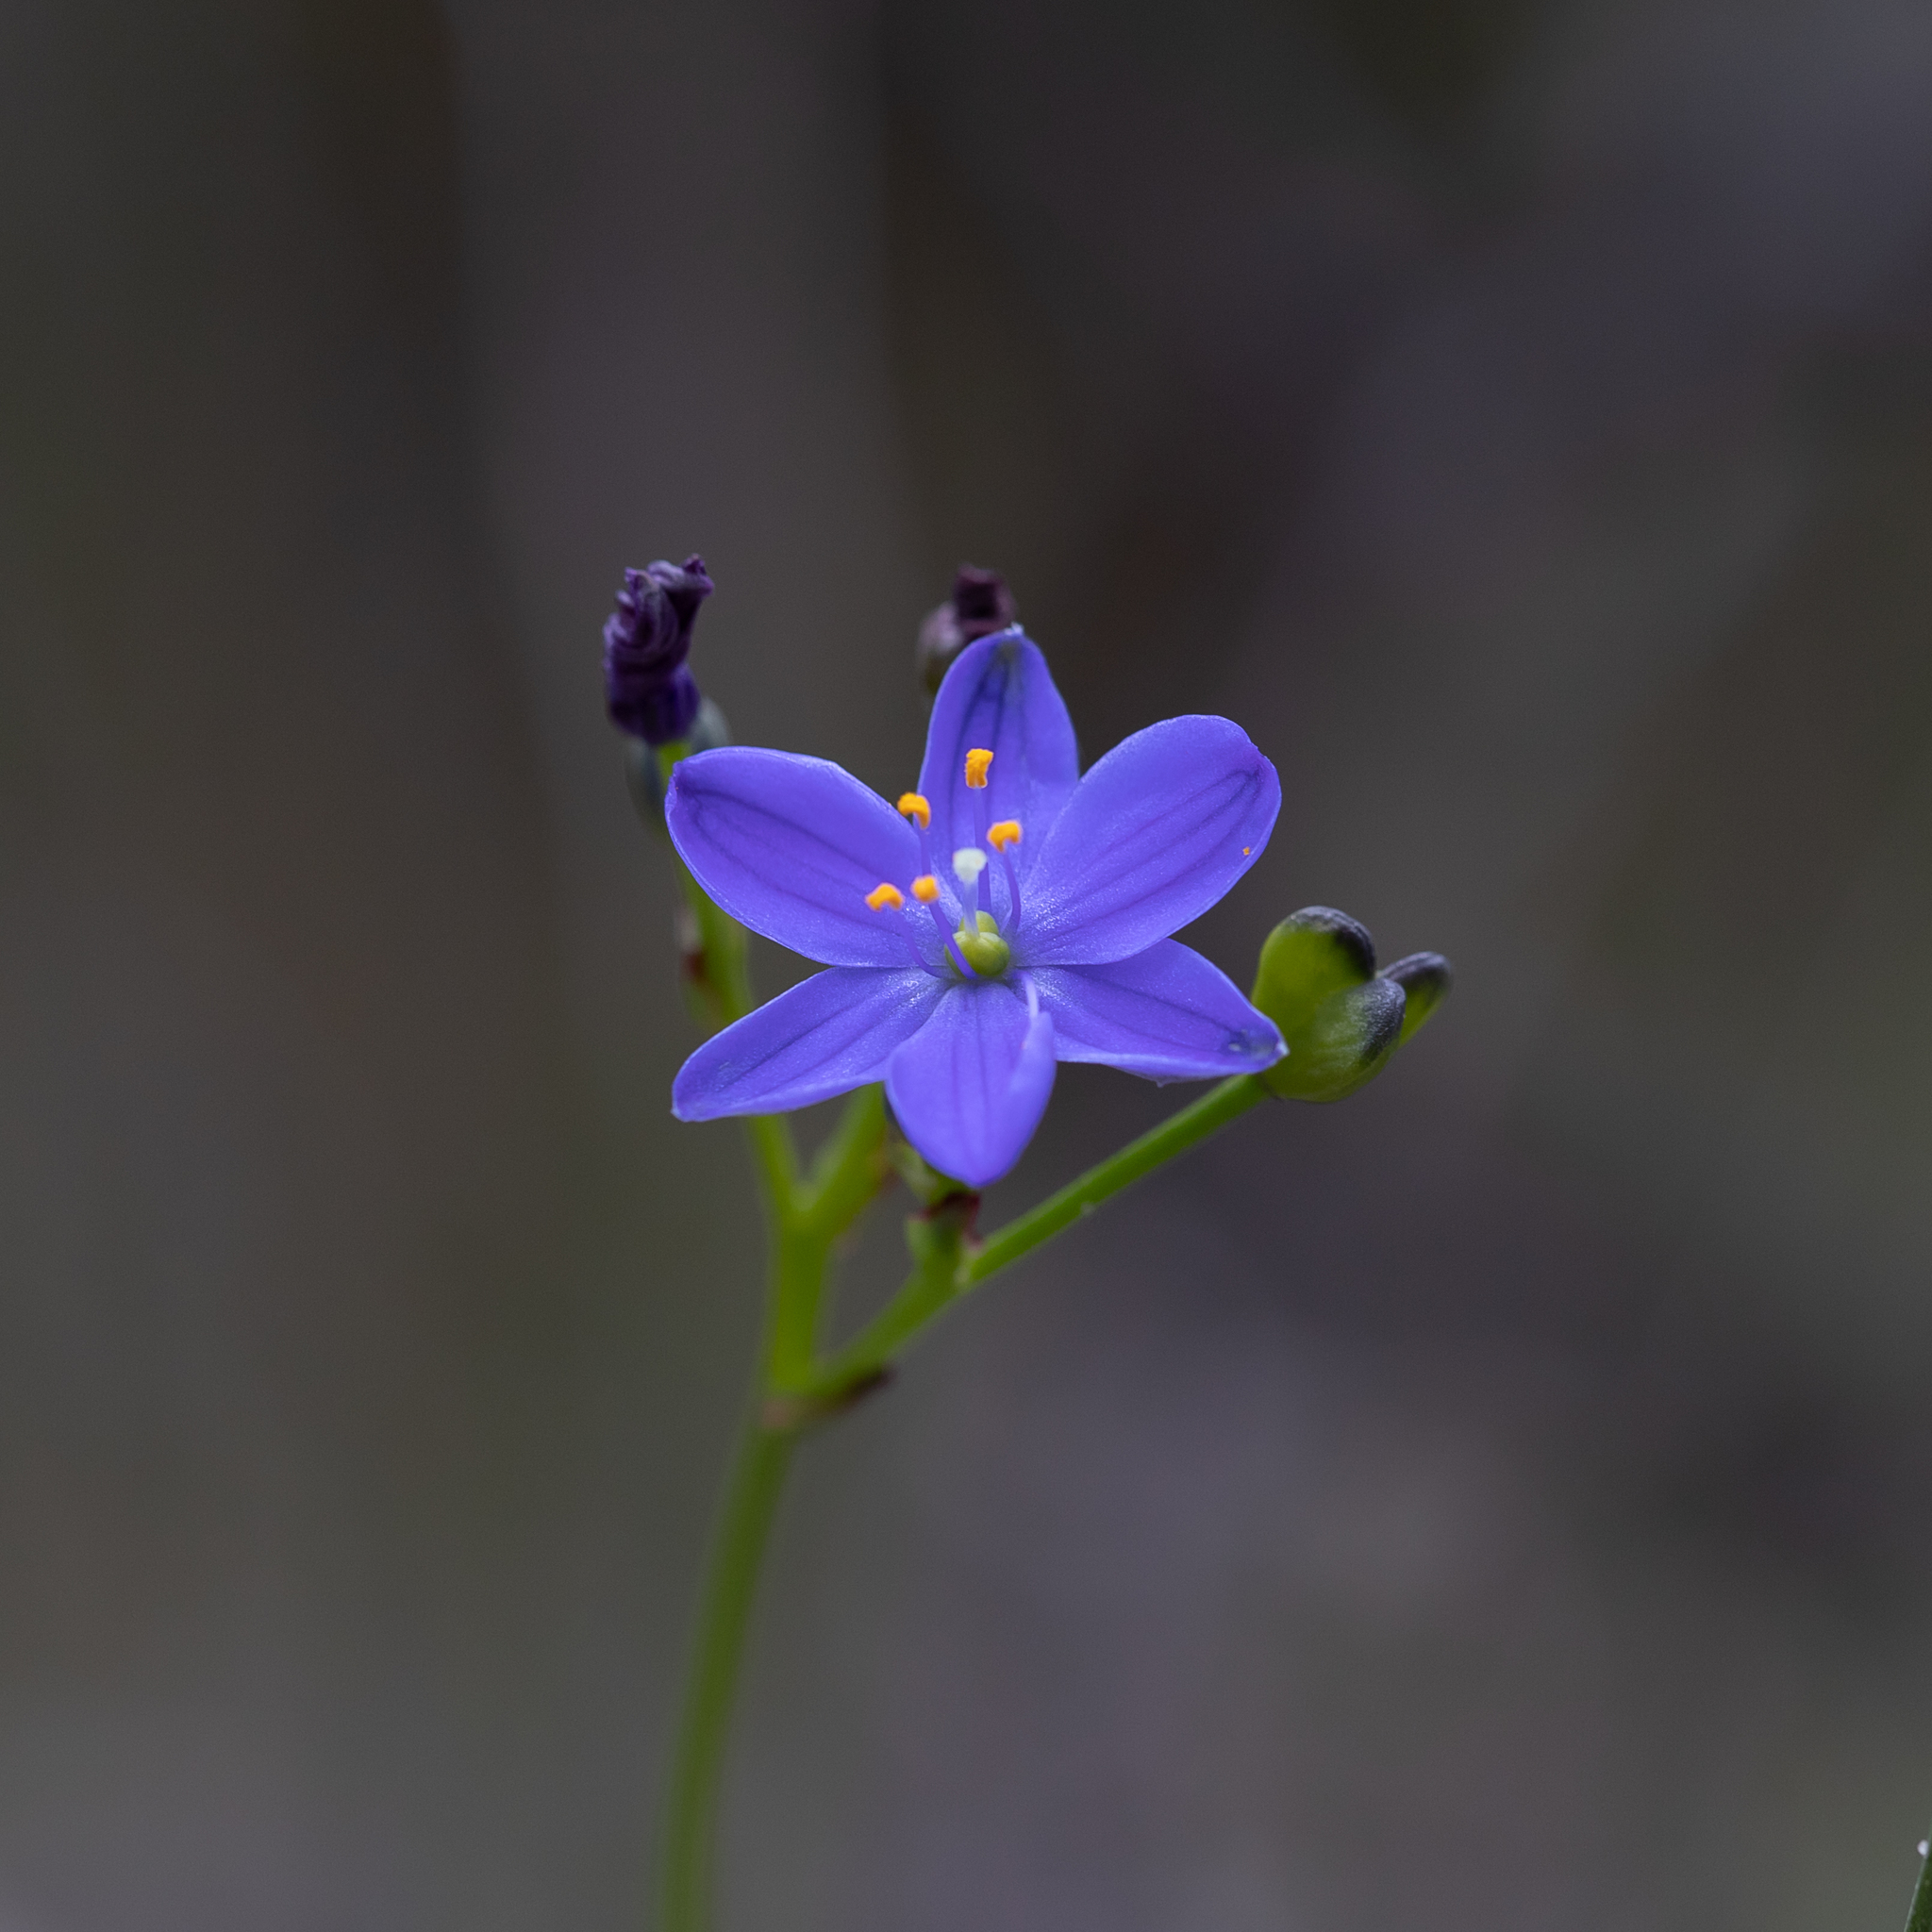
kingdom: Plantae
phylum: Tracheophyta
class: Liliopsida
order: Asparagales
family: Asphodelaceae
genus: Chamaescilla
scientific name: Chamaescilla corymbosa
